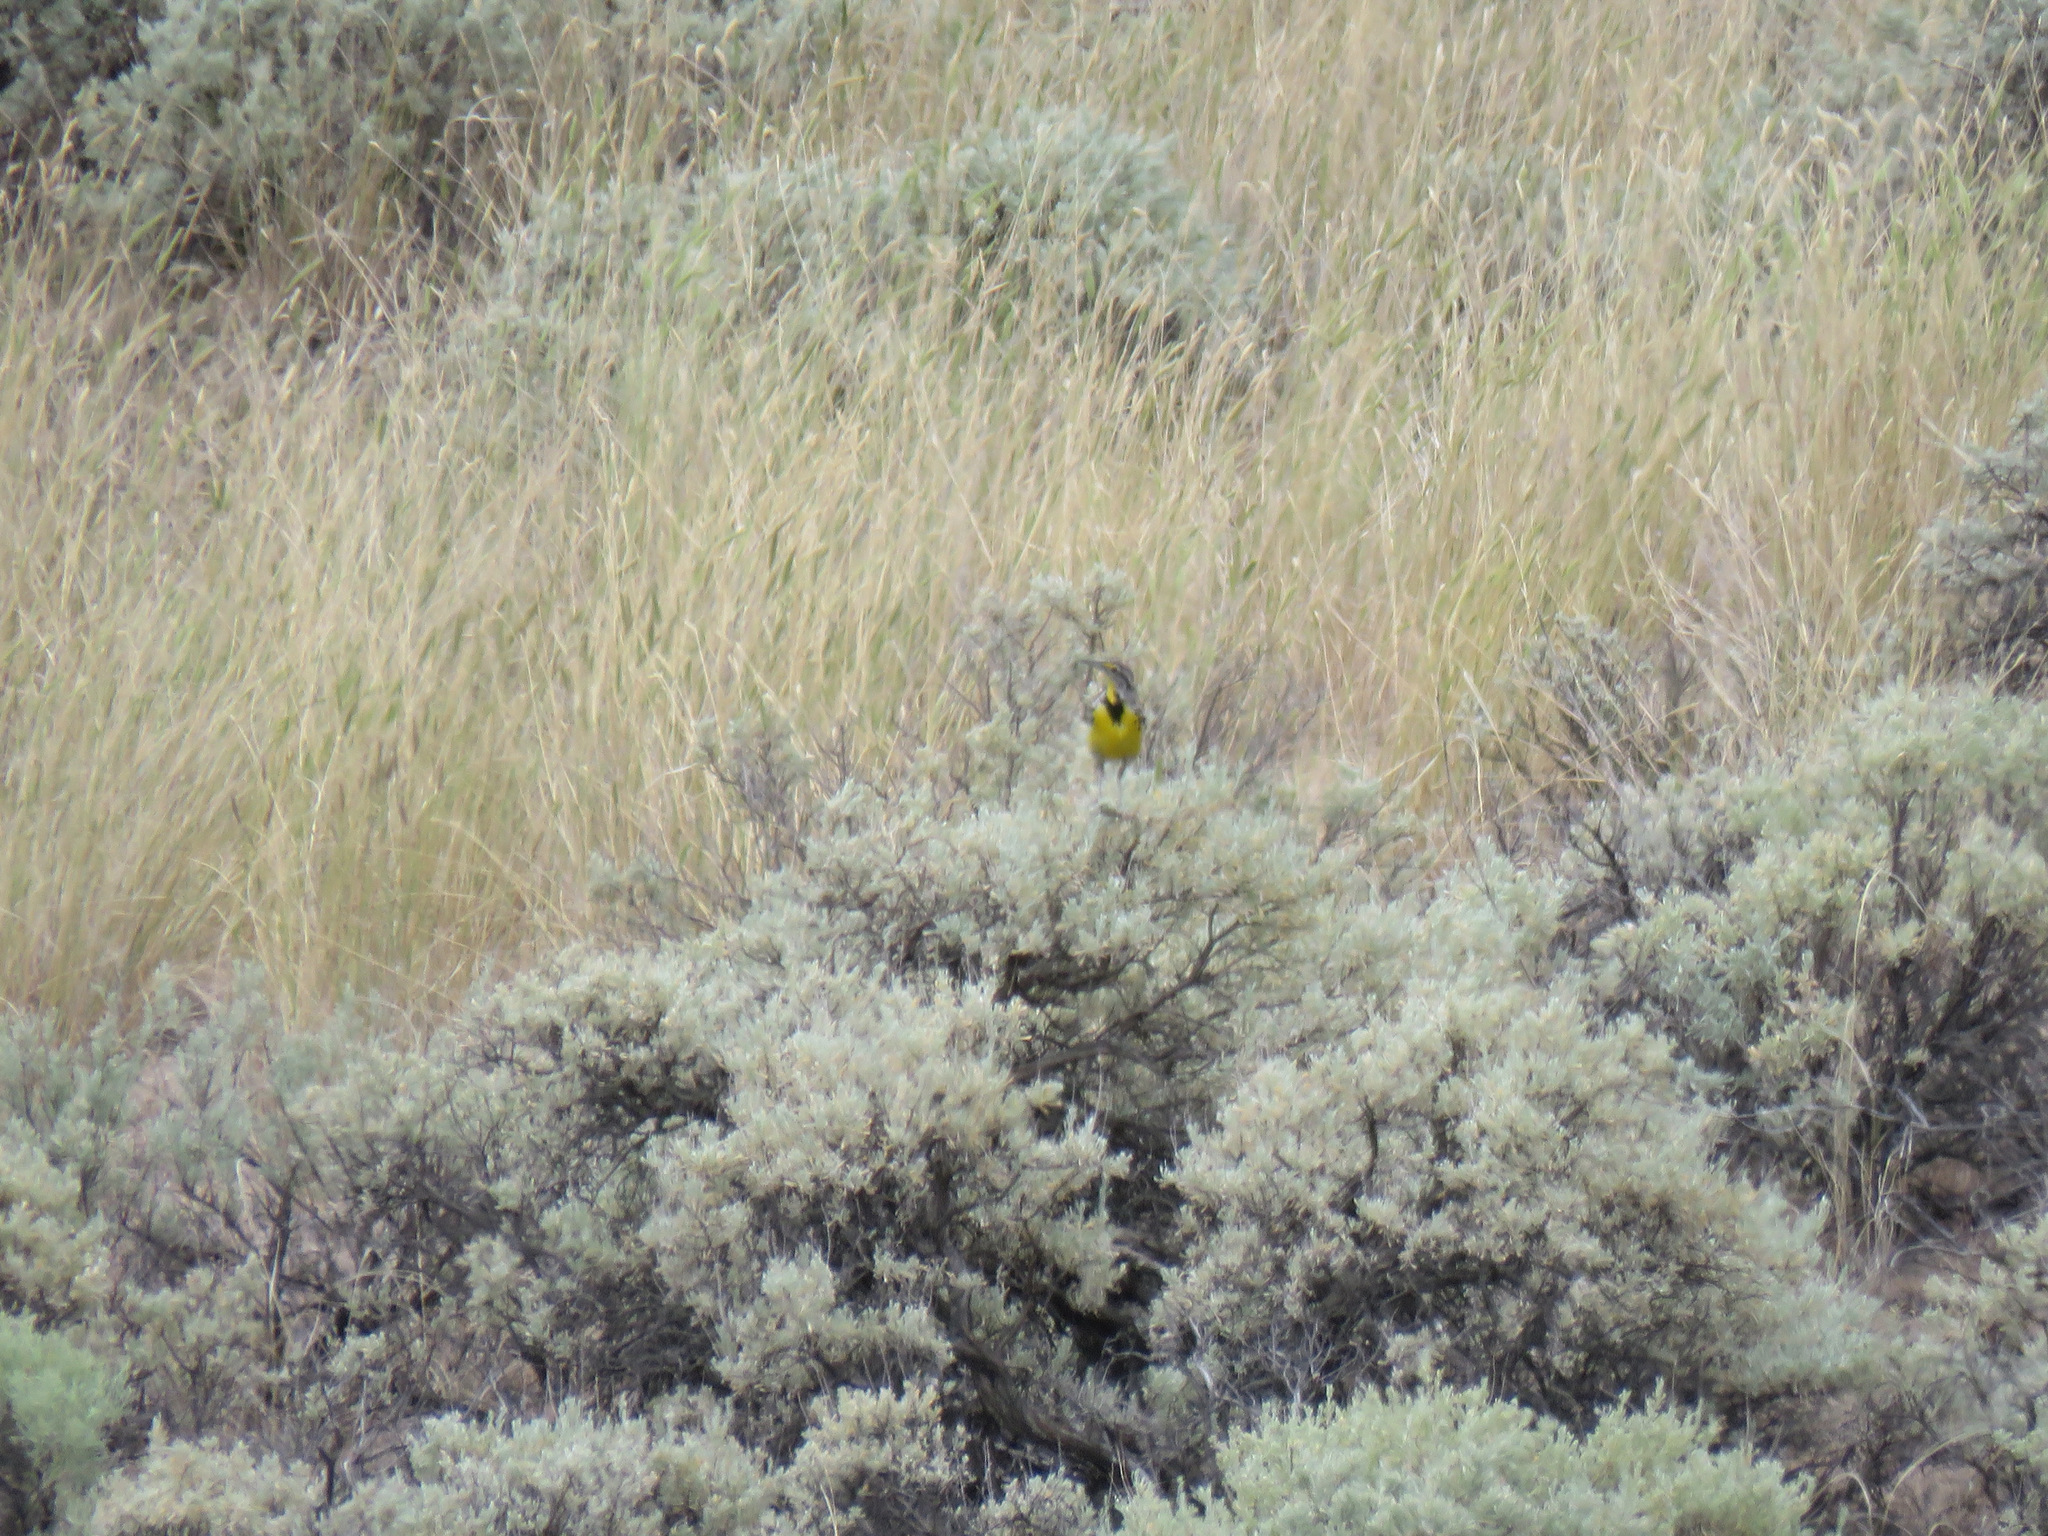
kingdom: Animalia
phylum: Chordata
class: Aves
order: Passeriformes
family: Icteridae
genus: Sturnella
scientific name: Sturnella neglecta
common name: Western meadowlark
